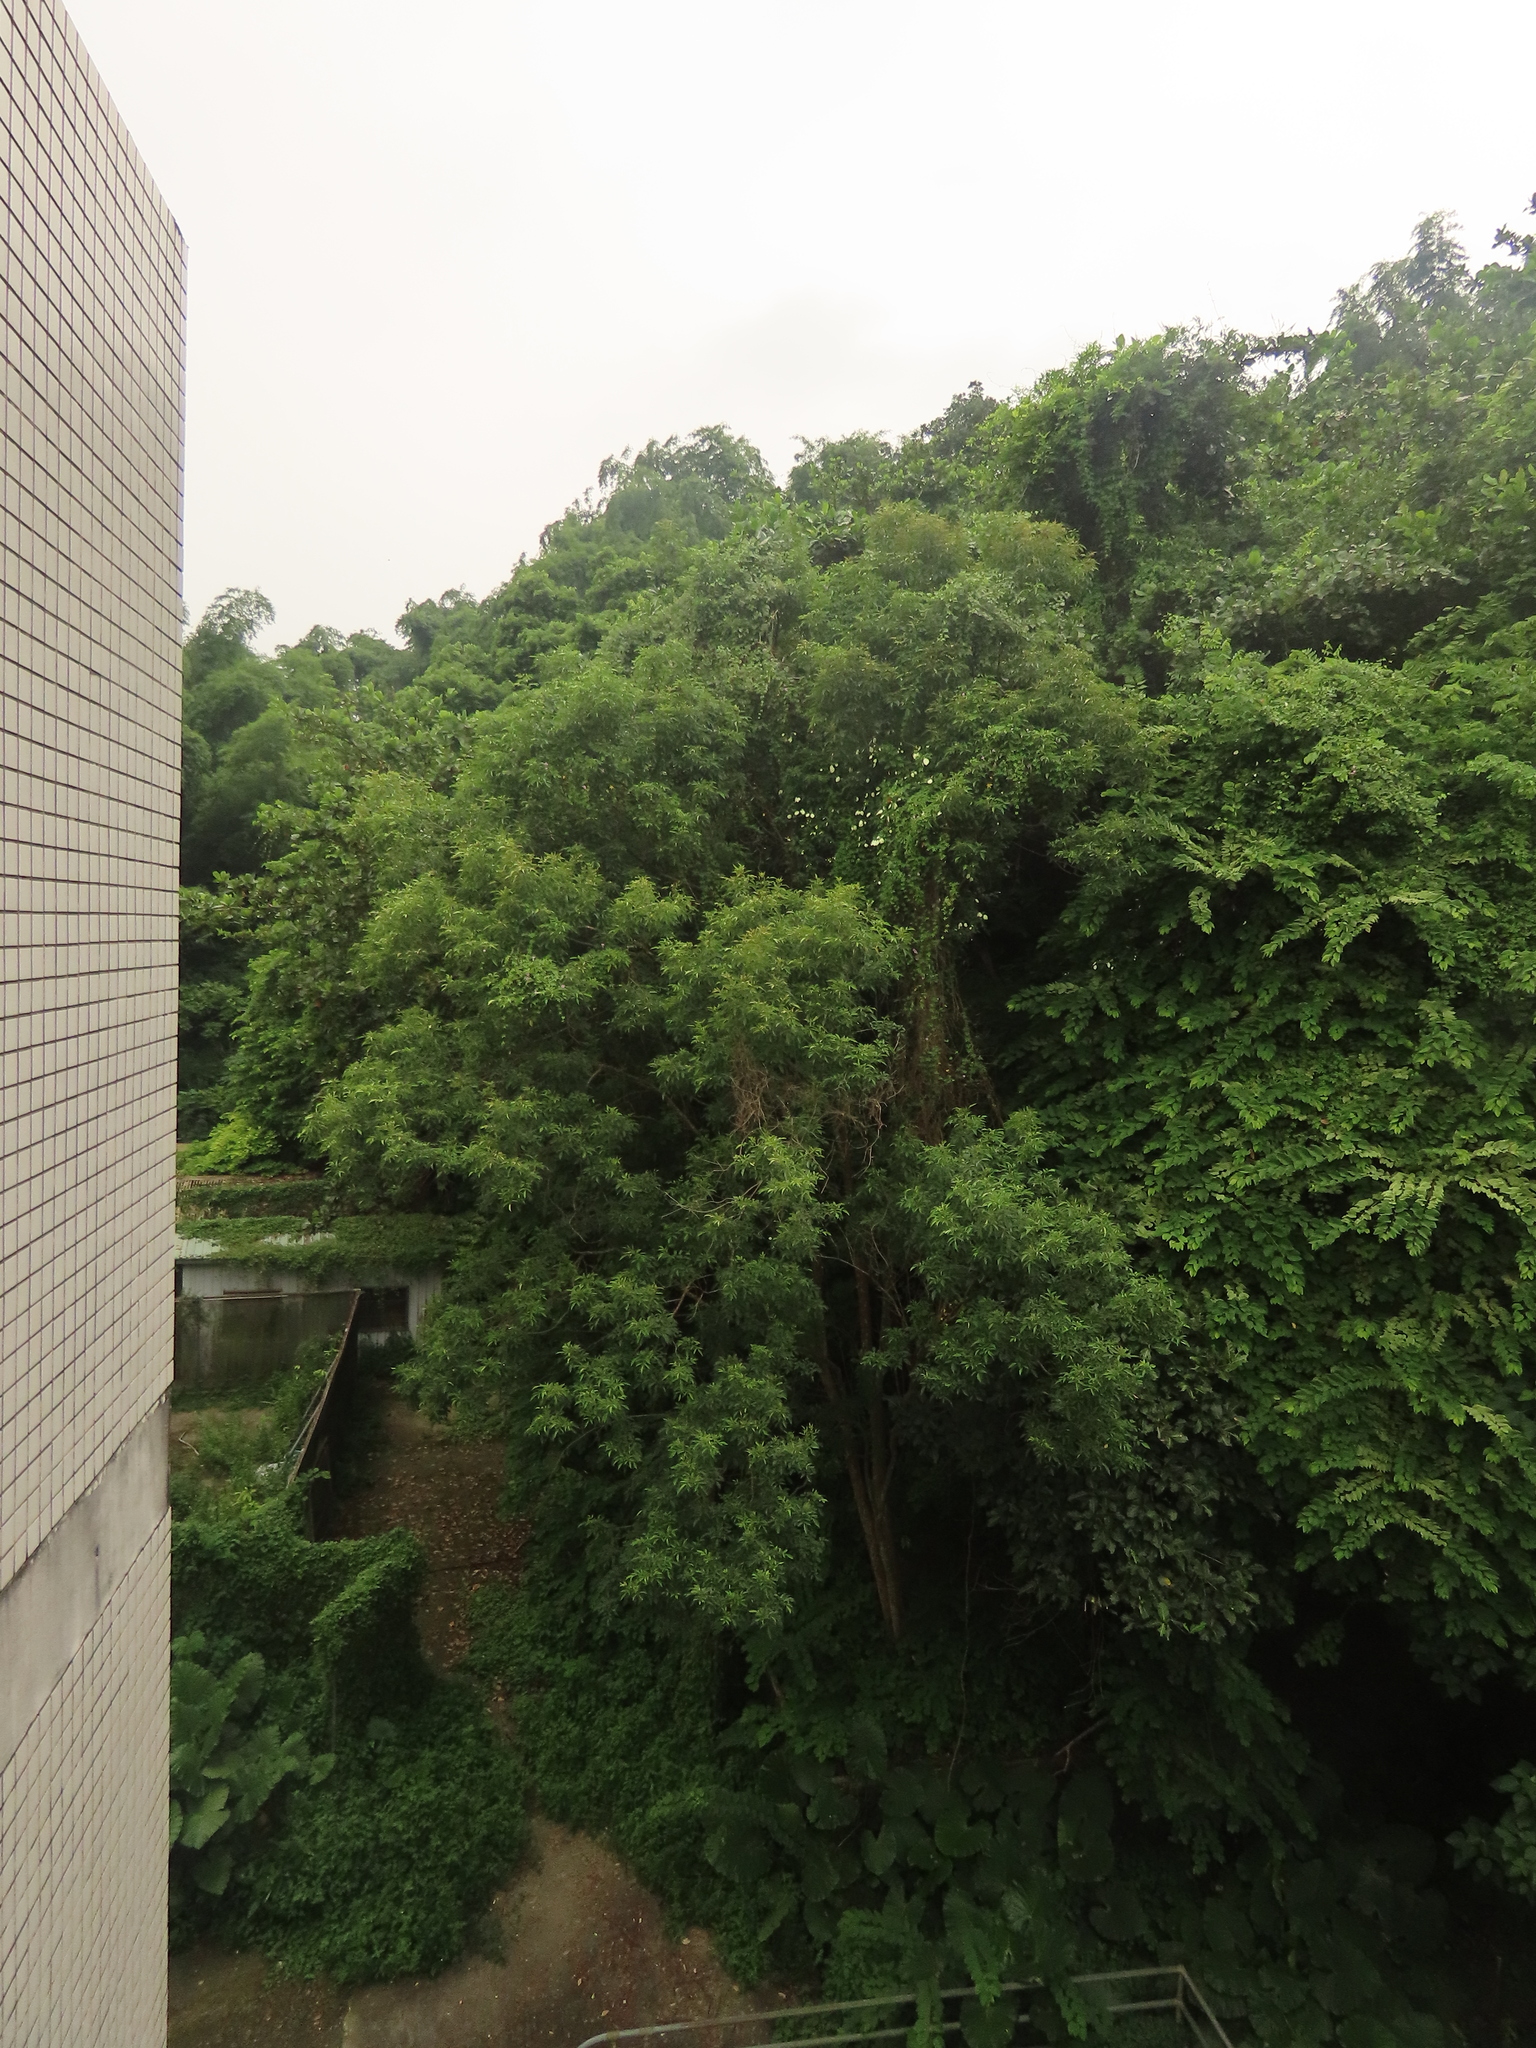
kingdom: Plantae
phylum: Tracheophyta
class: Magnoliopsida
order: Gentianales
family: Rubiaceae
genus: Mussaenda
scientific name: Mussaenda formosana
